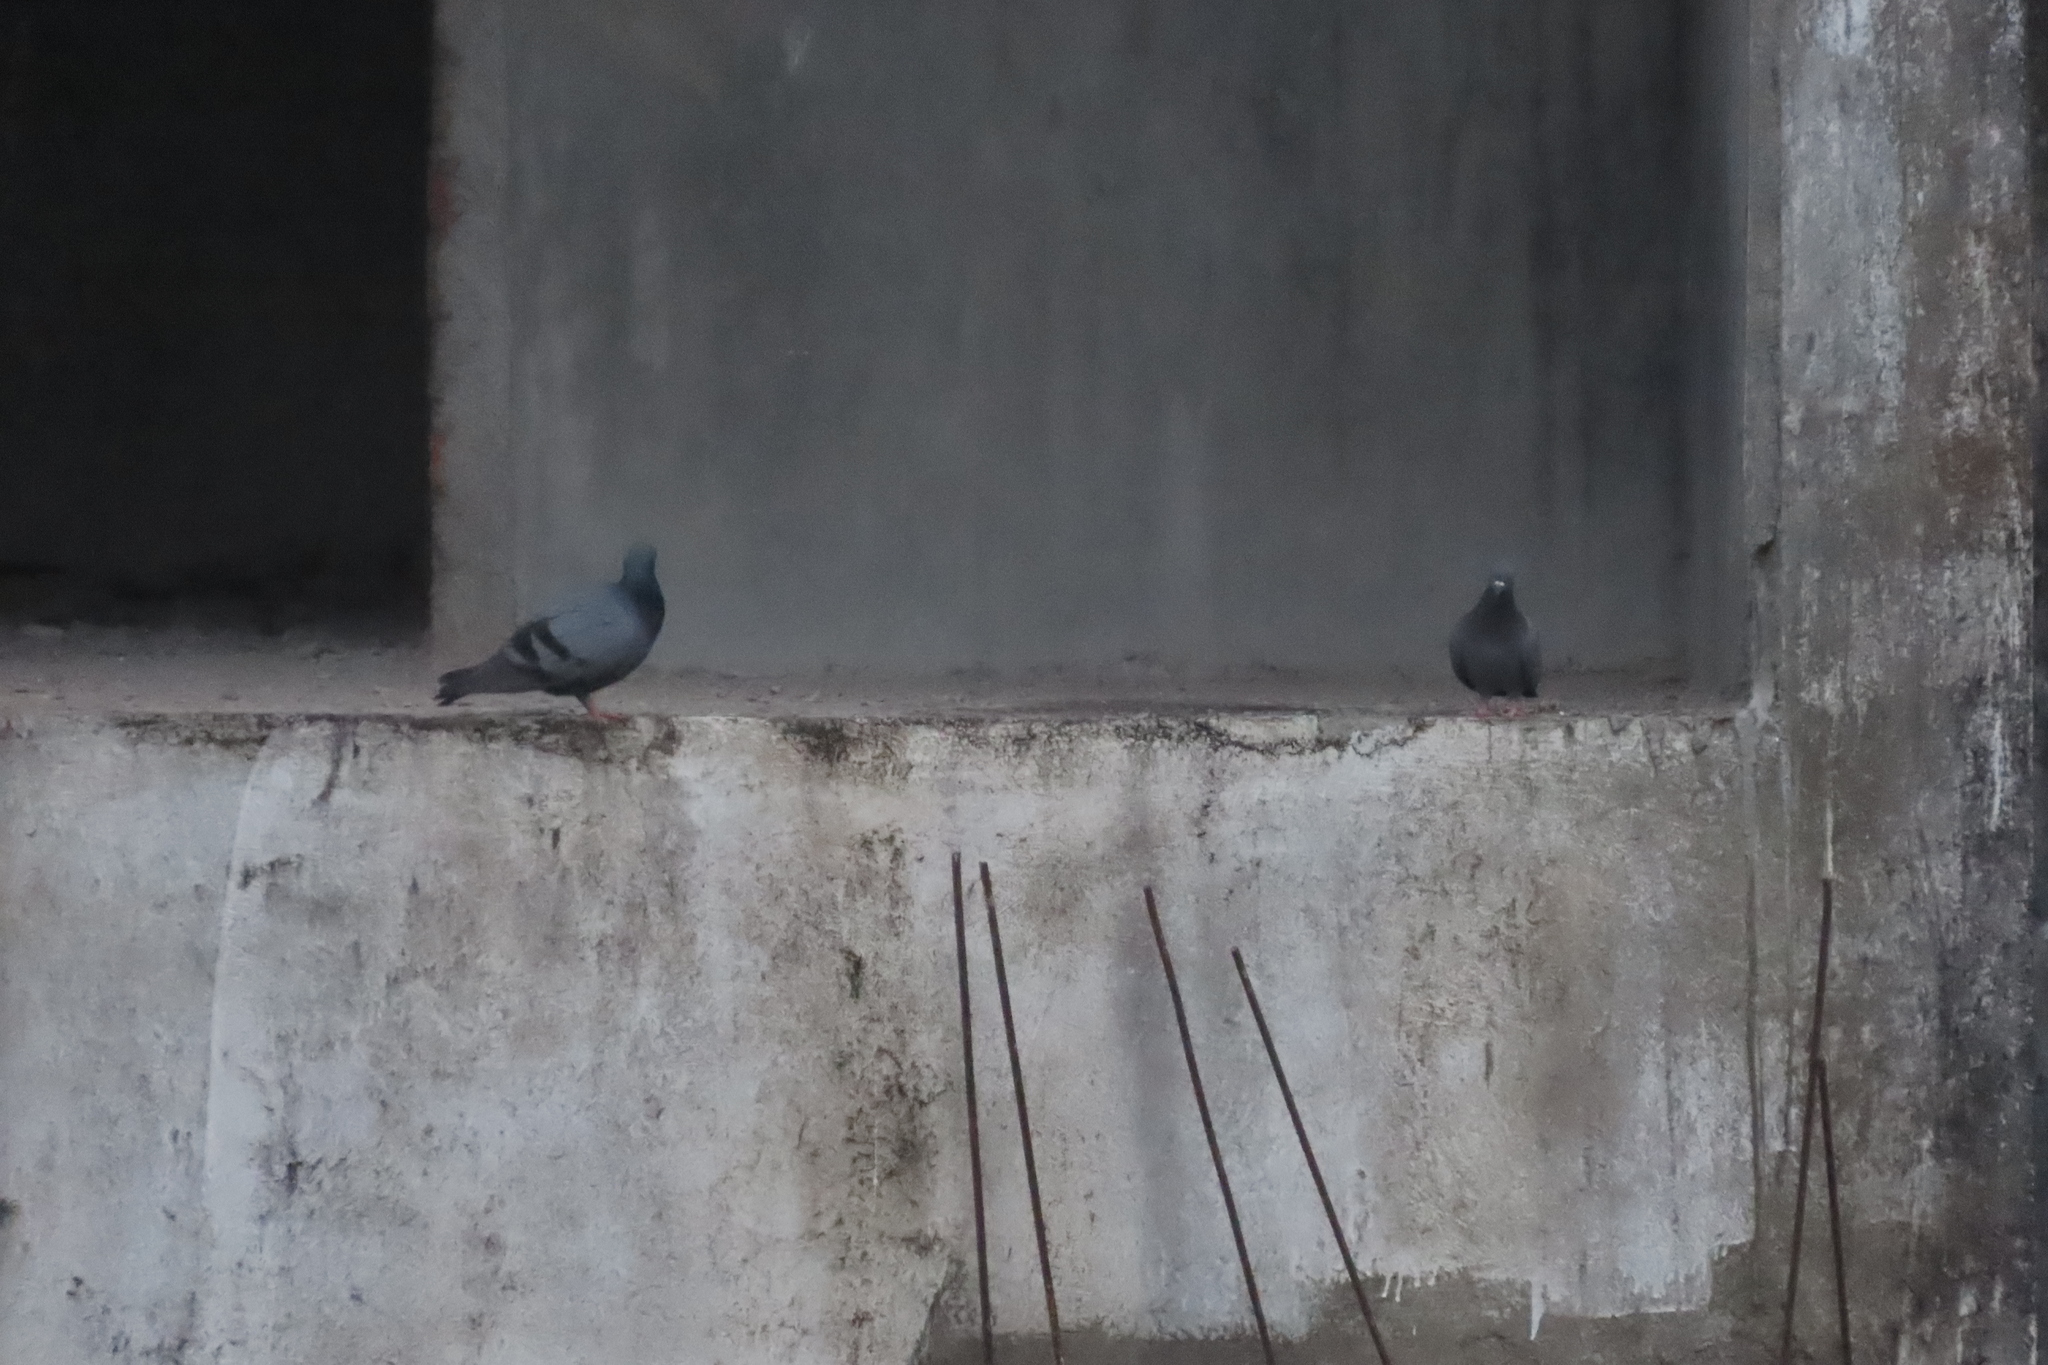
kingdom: Animalia
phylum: Chordata
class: Aves
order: Columbiformes
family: Columbidae
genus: Columba
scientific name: Columba livia
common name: Rock pigeon
